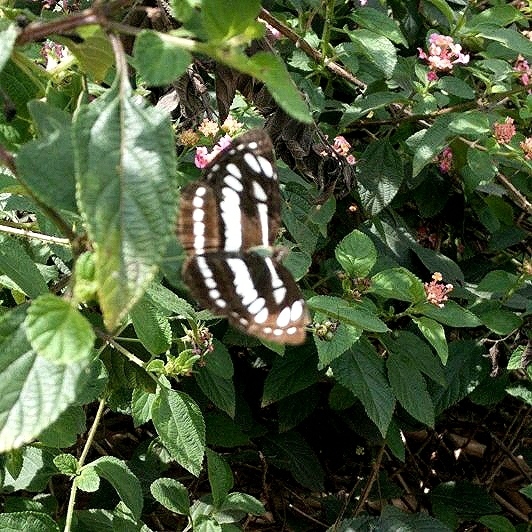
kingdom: Animalia
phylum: Arthropoda
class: Insecta
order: Lepidoptera
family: Nymphalidae
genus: Neptis
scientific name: Neptis hylas
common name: Common sailer
